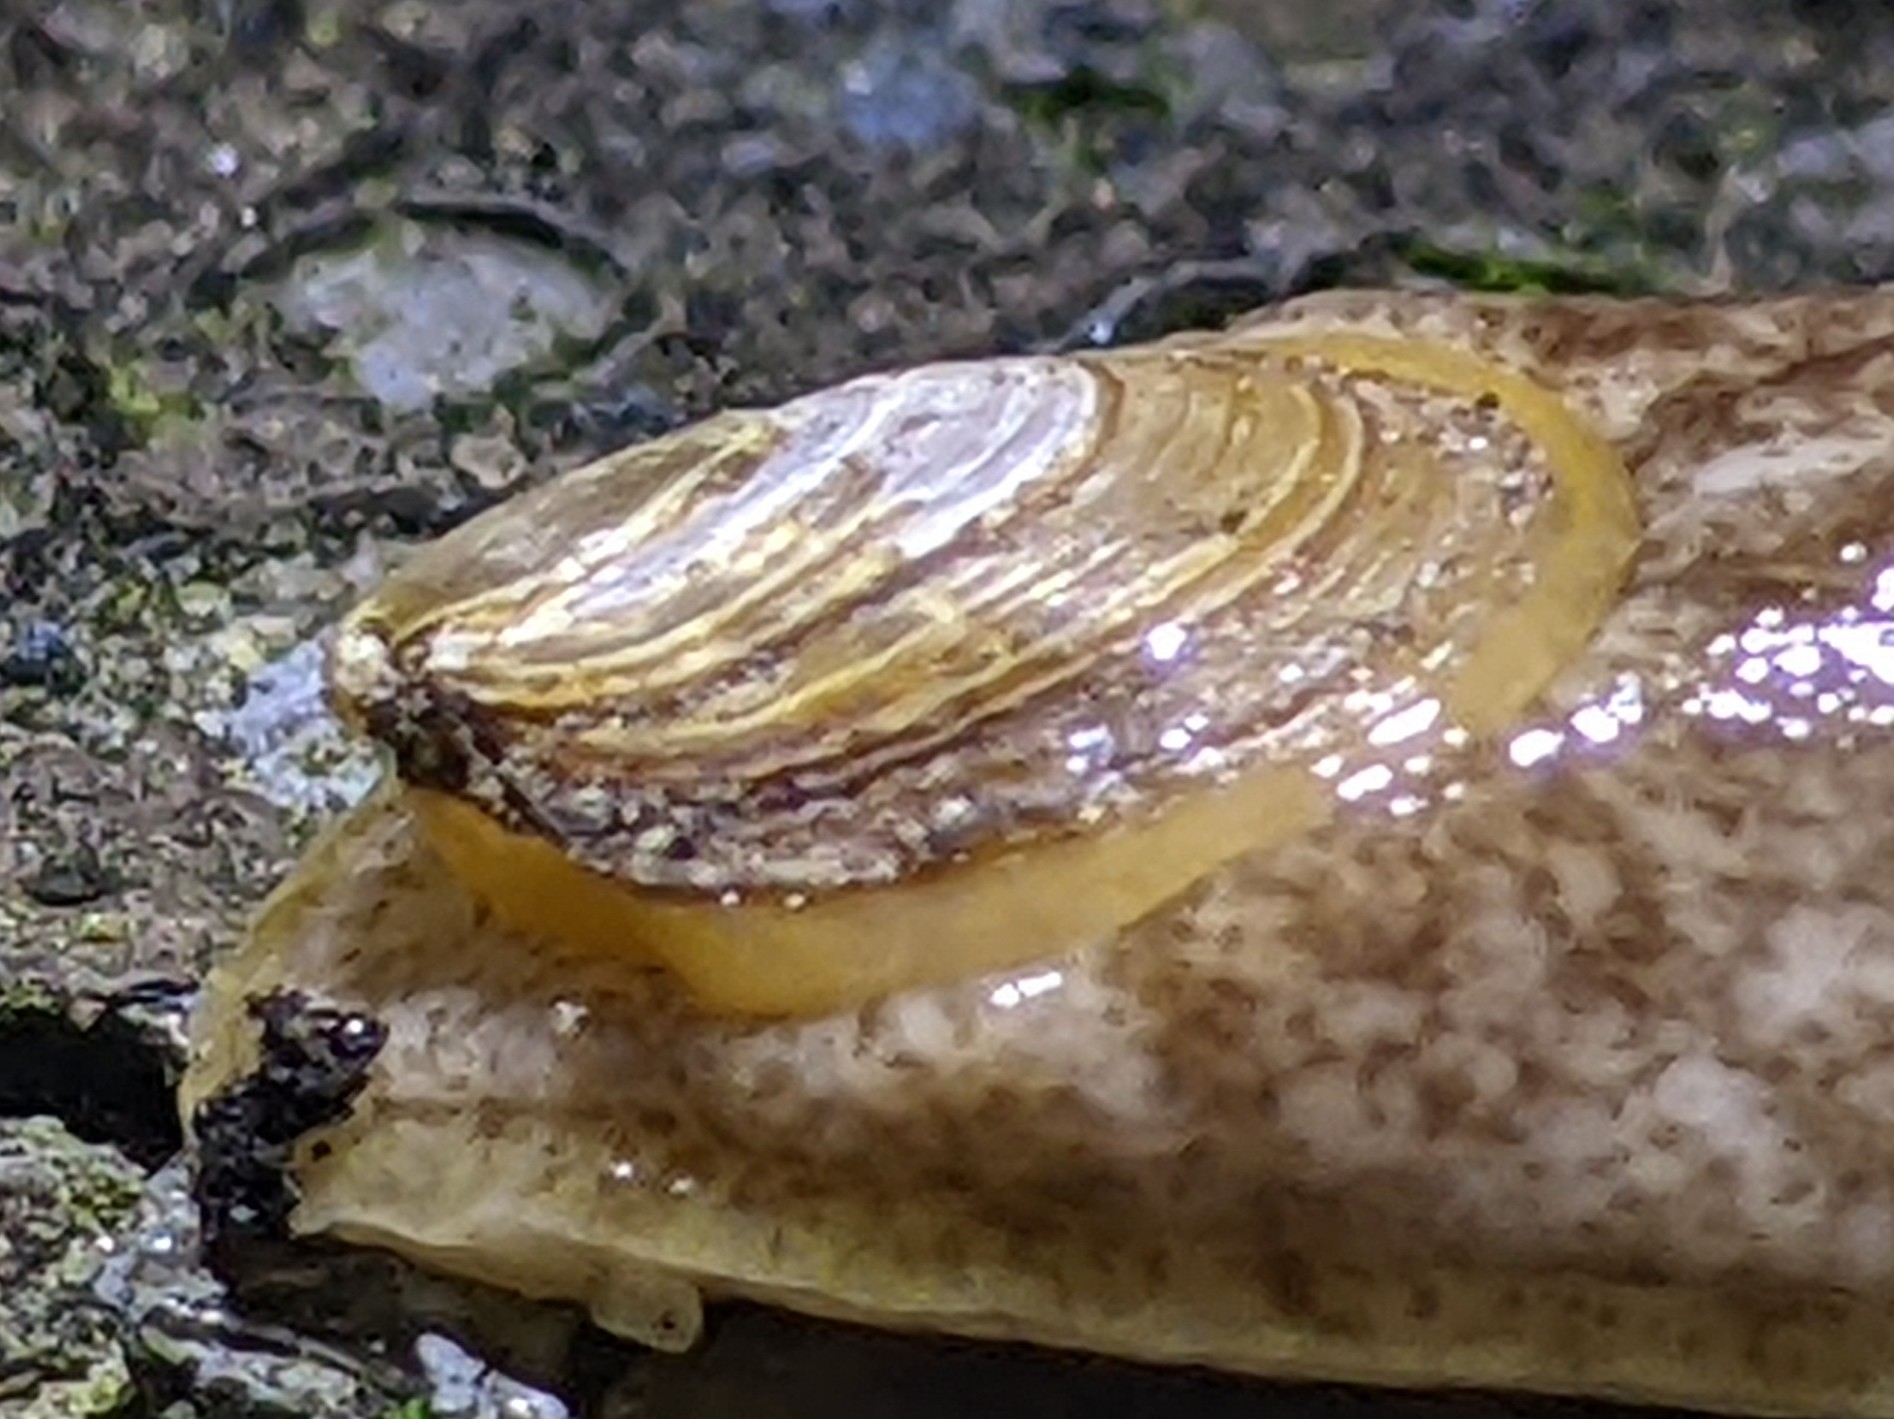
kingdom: Animalia
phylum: Mollusca
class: Gastropoda
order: Stylommatophora
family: Testacellidae
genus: Testacella
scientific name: Testacella haliotidea
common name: Shelled slug
